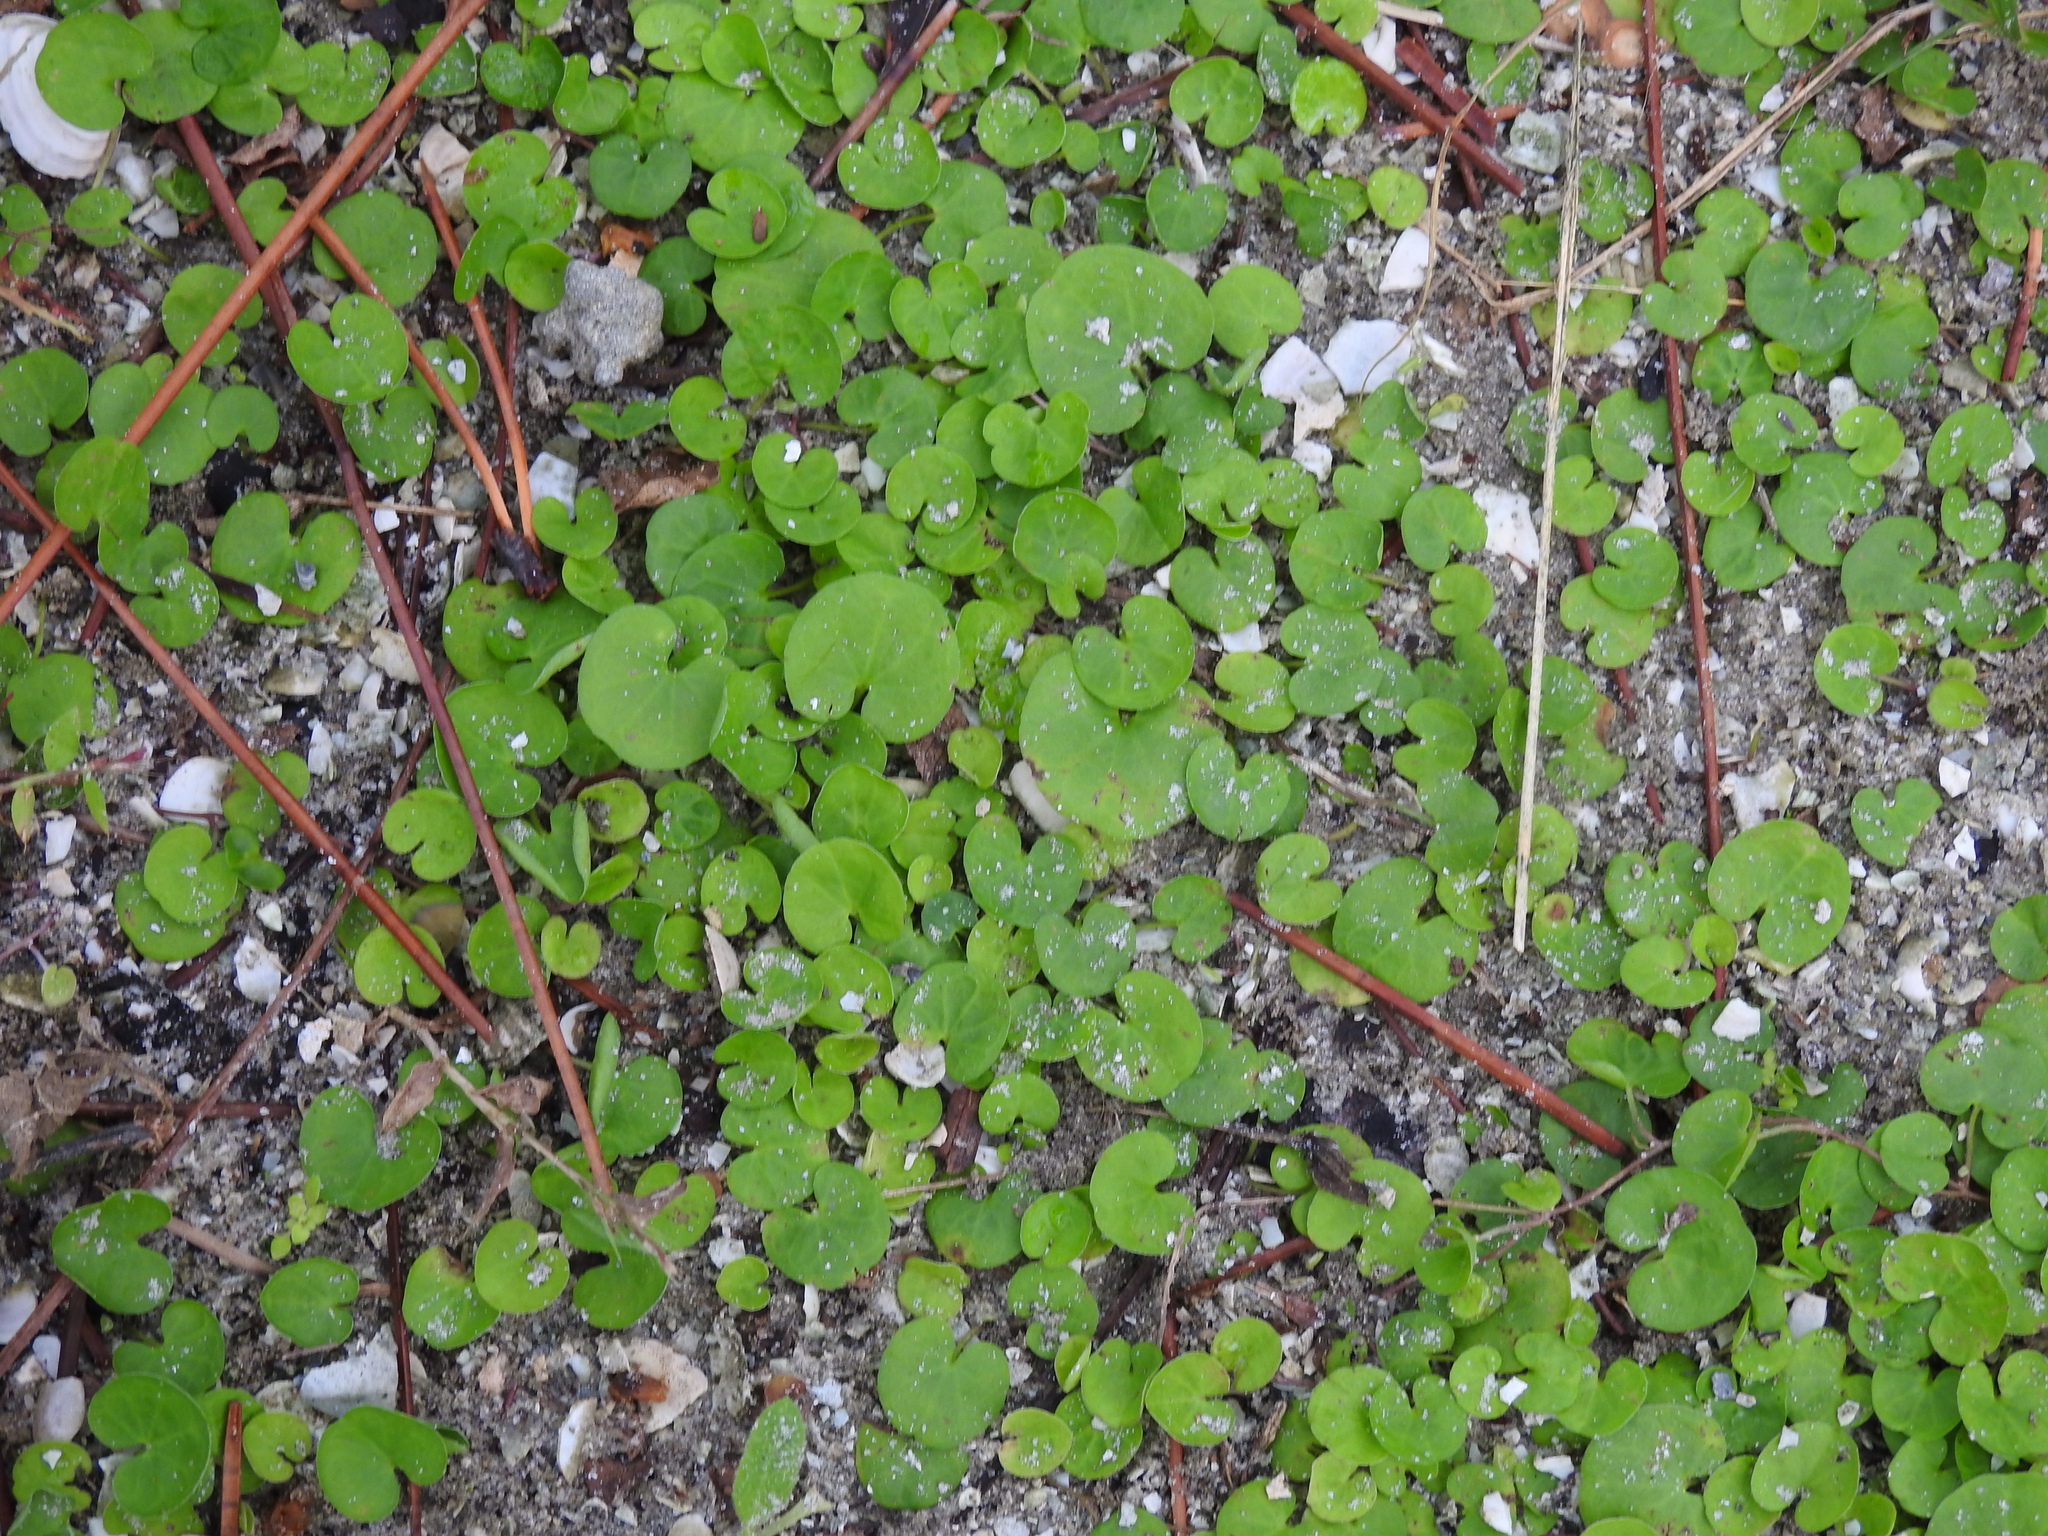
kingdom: Plantae
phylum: Tracheophyta
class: Magnoliopsida
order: Solanales
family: Convolvulaceae
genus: Dichondra
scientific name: Dichondra carolinensis
